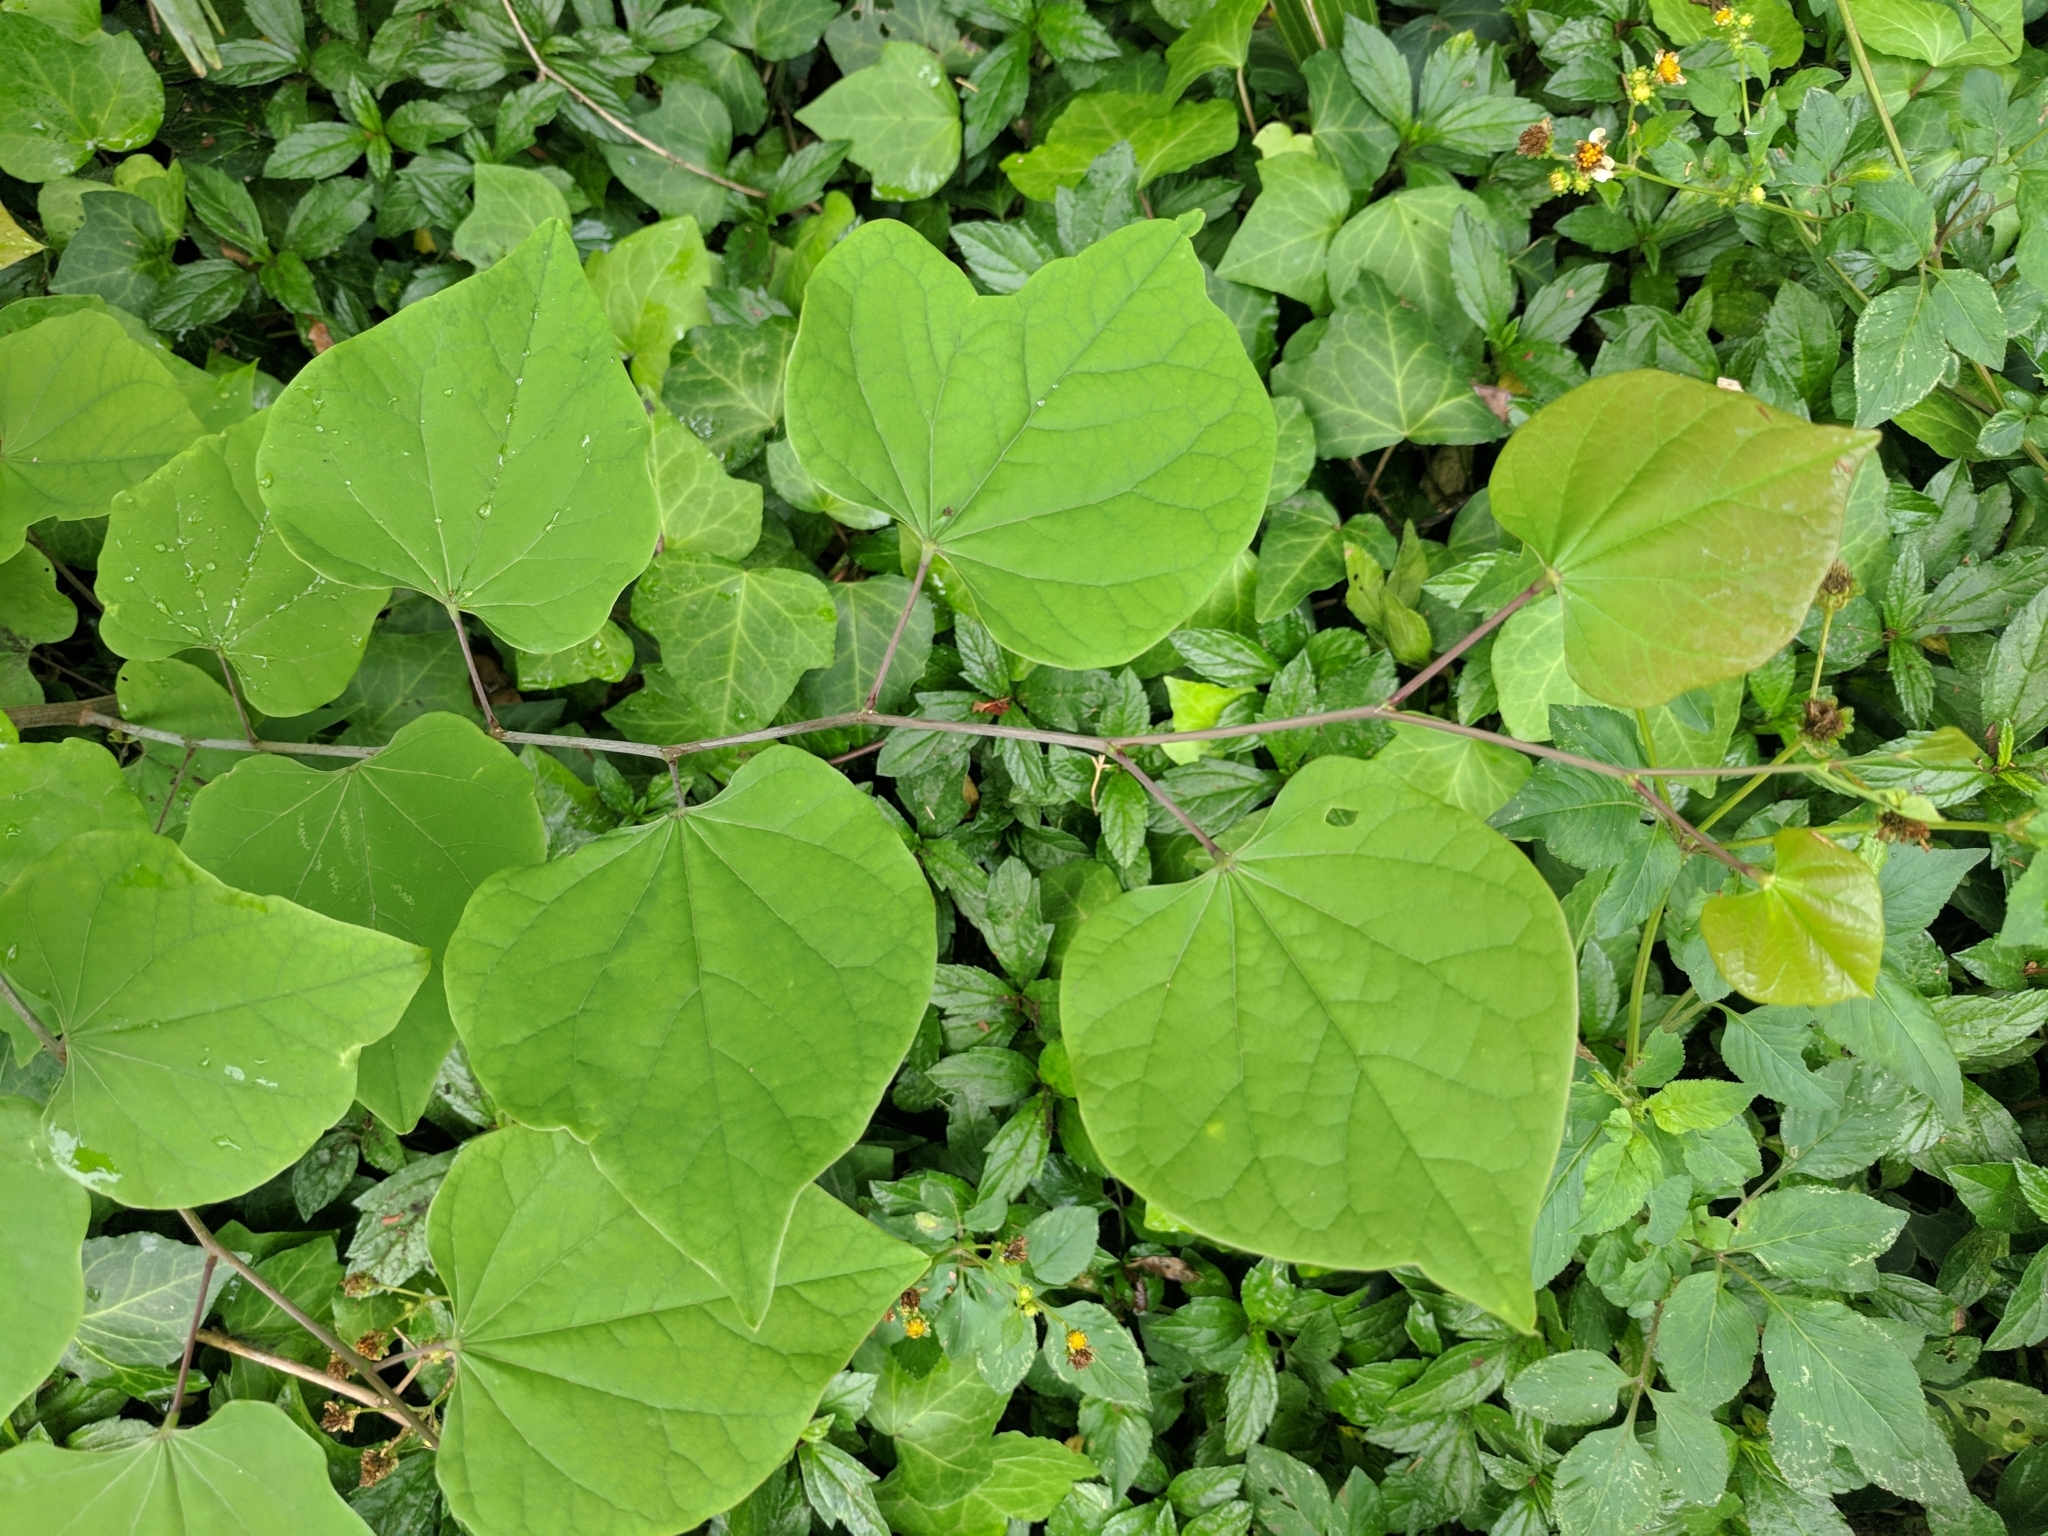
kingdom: Plantae
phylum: Tracheophyta
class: Magnoliopsida
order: Fabales
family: Fabaceae
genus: Cercis
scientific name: Cercis canadensis
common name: Eastern redbud
